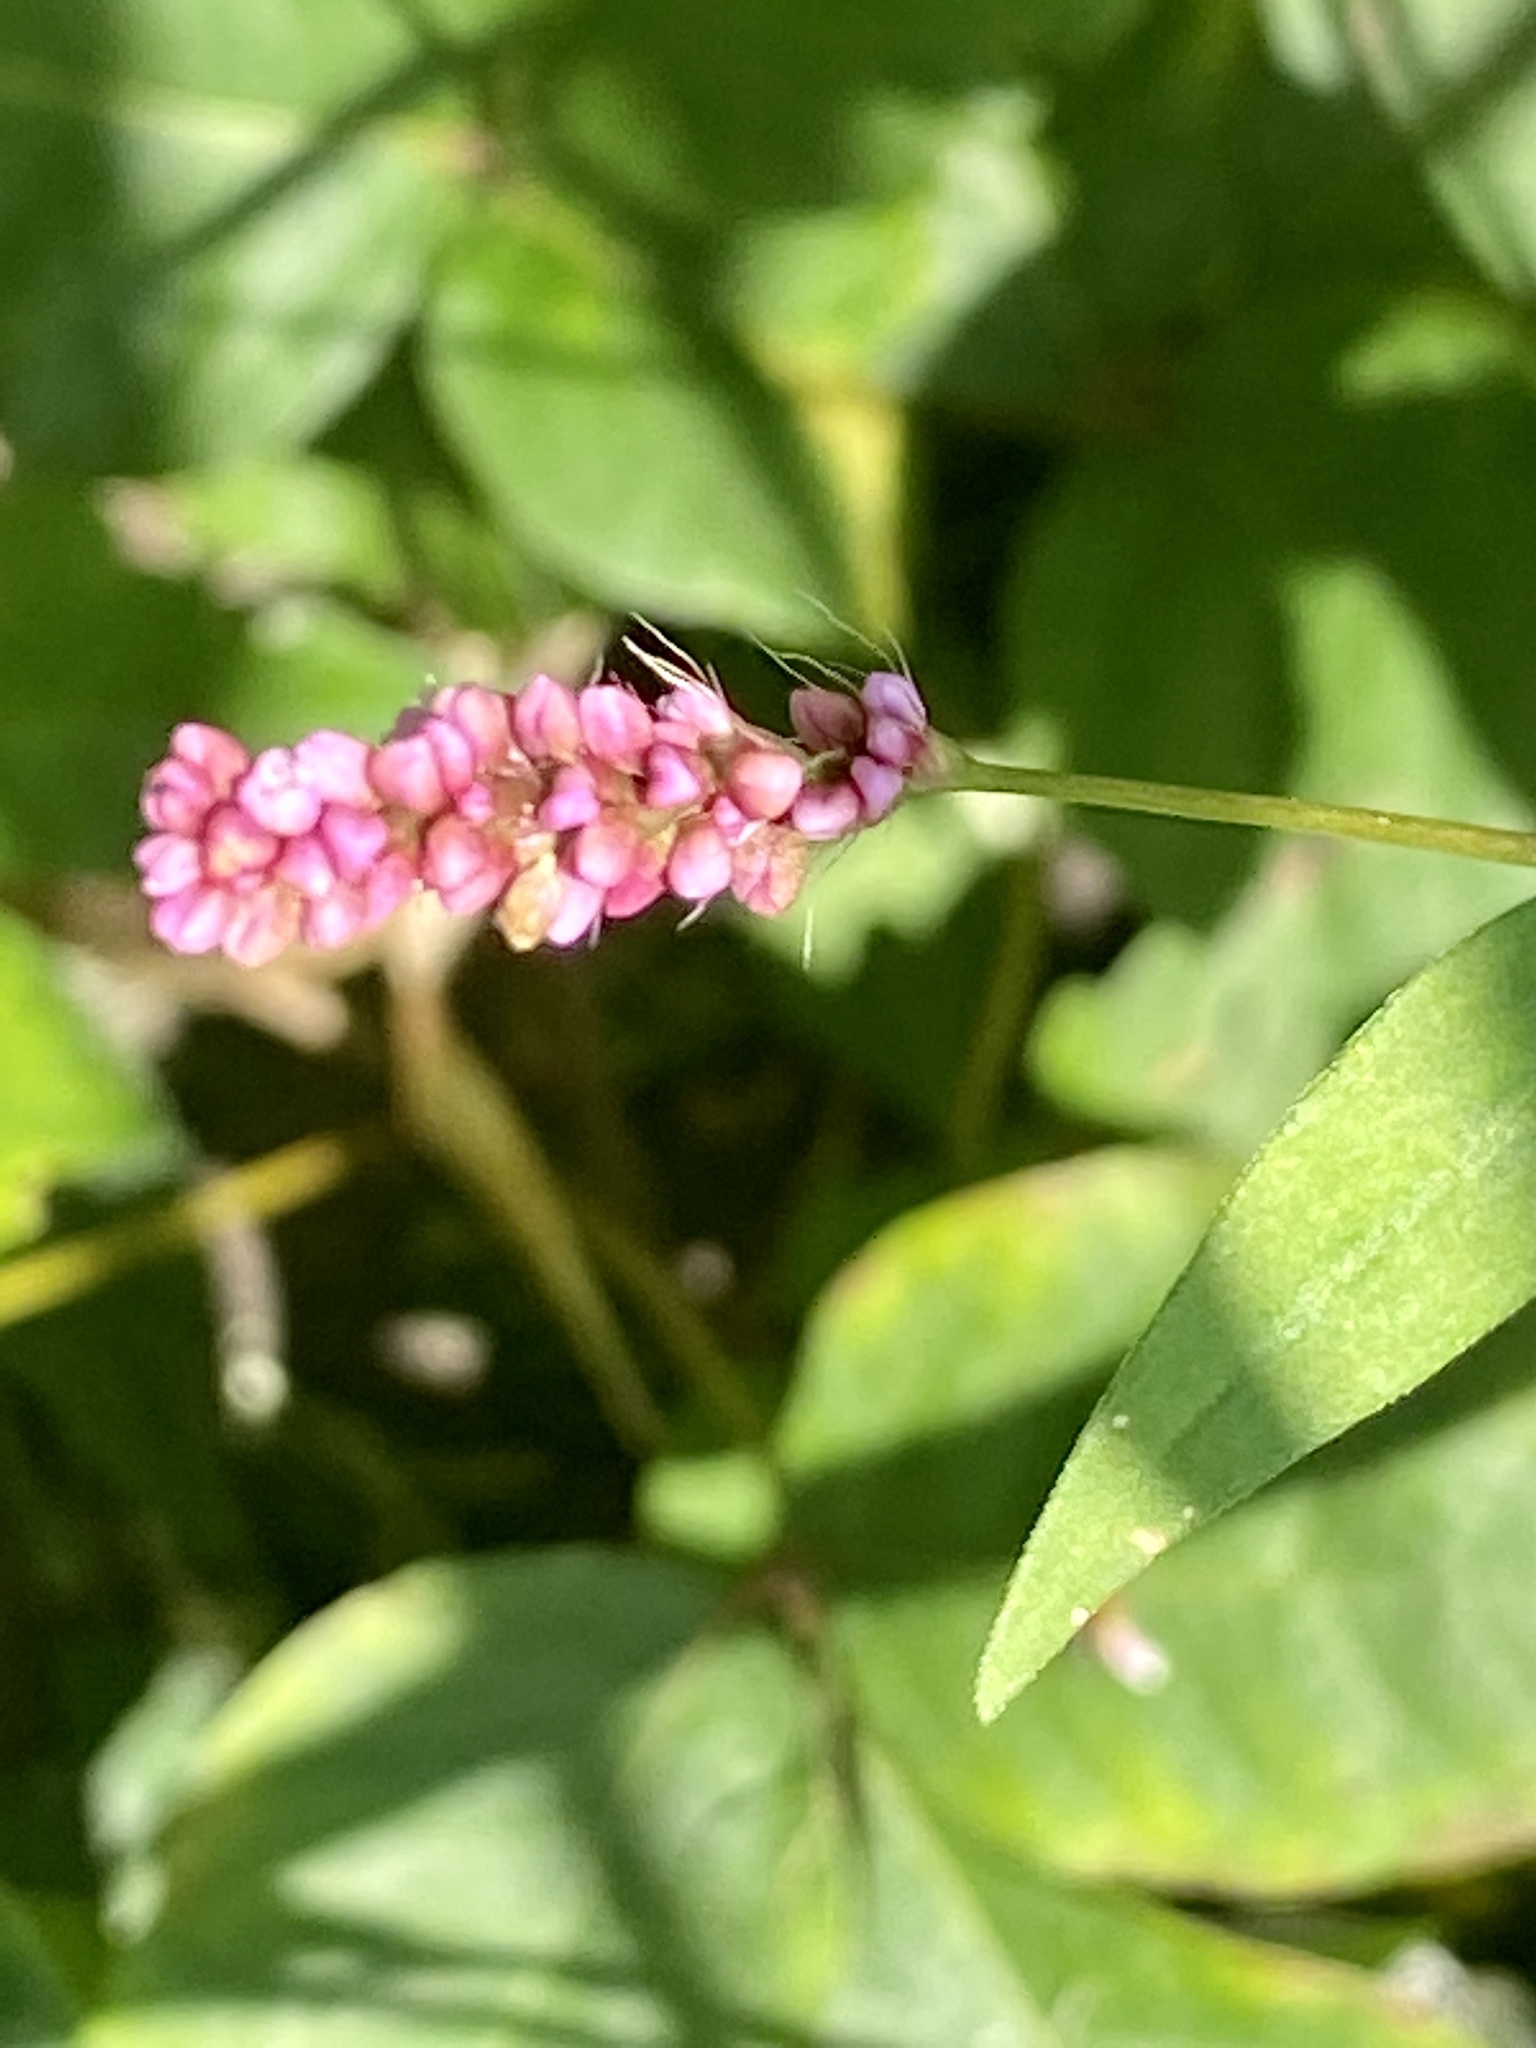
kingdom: Plantae
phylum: Tracheophyta
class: Magnoliopsida
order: Caryophyllales
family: Polygonaceae
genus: Persicaria
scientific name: Persicaria longiseta
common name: Bristly lady's-thumb
